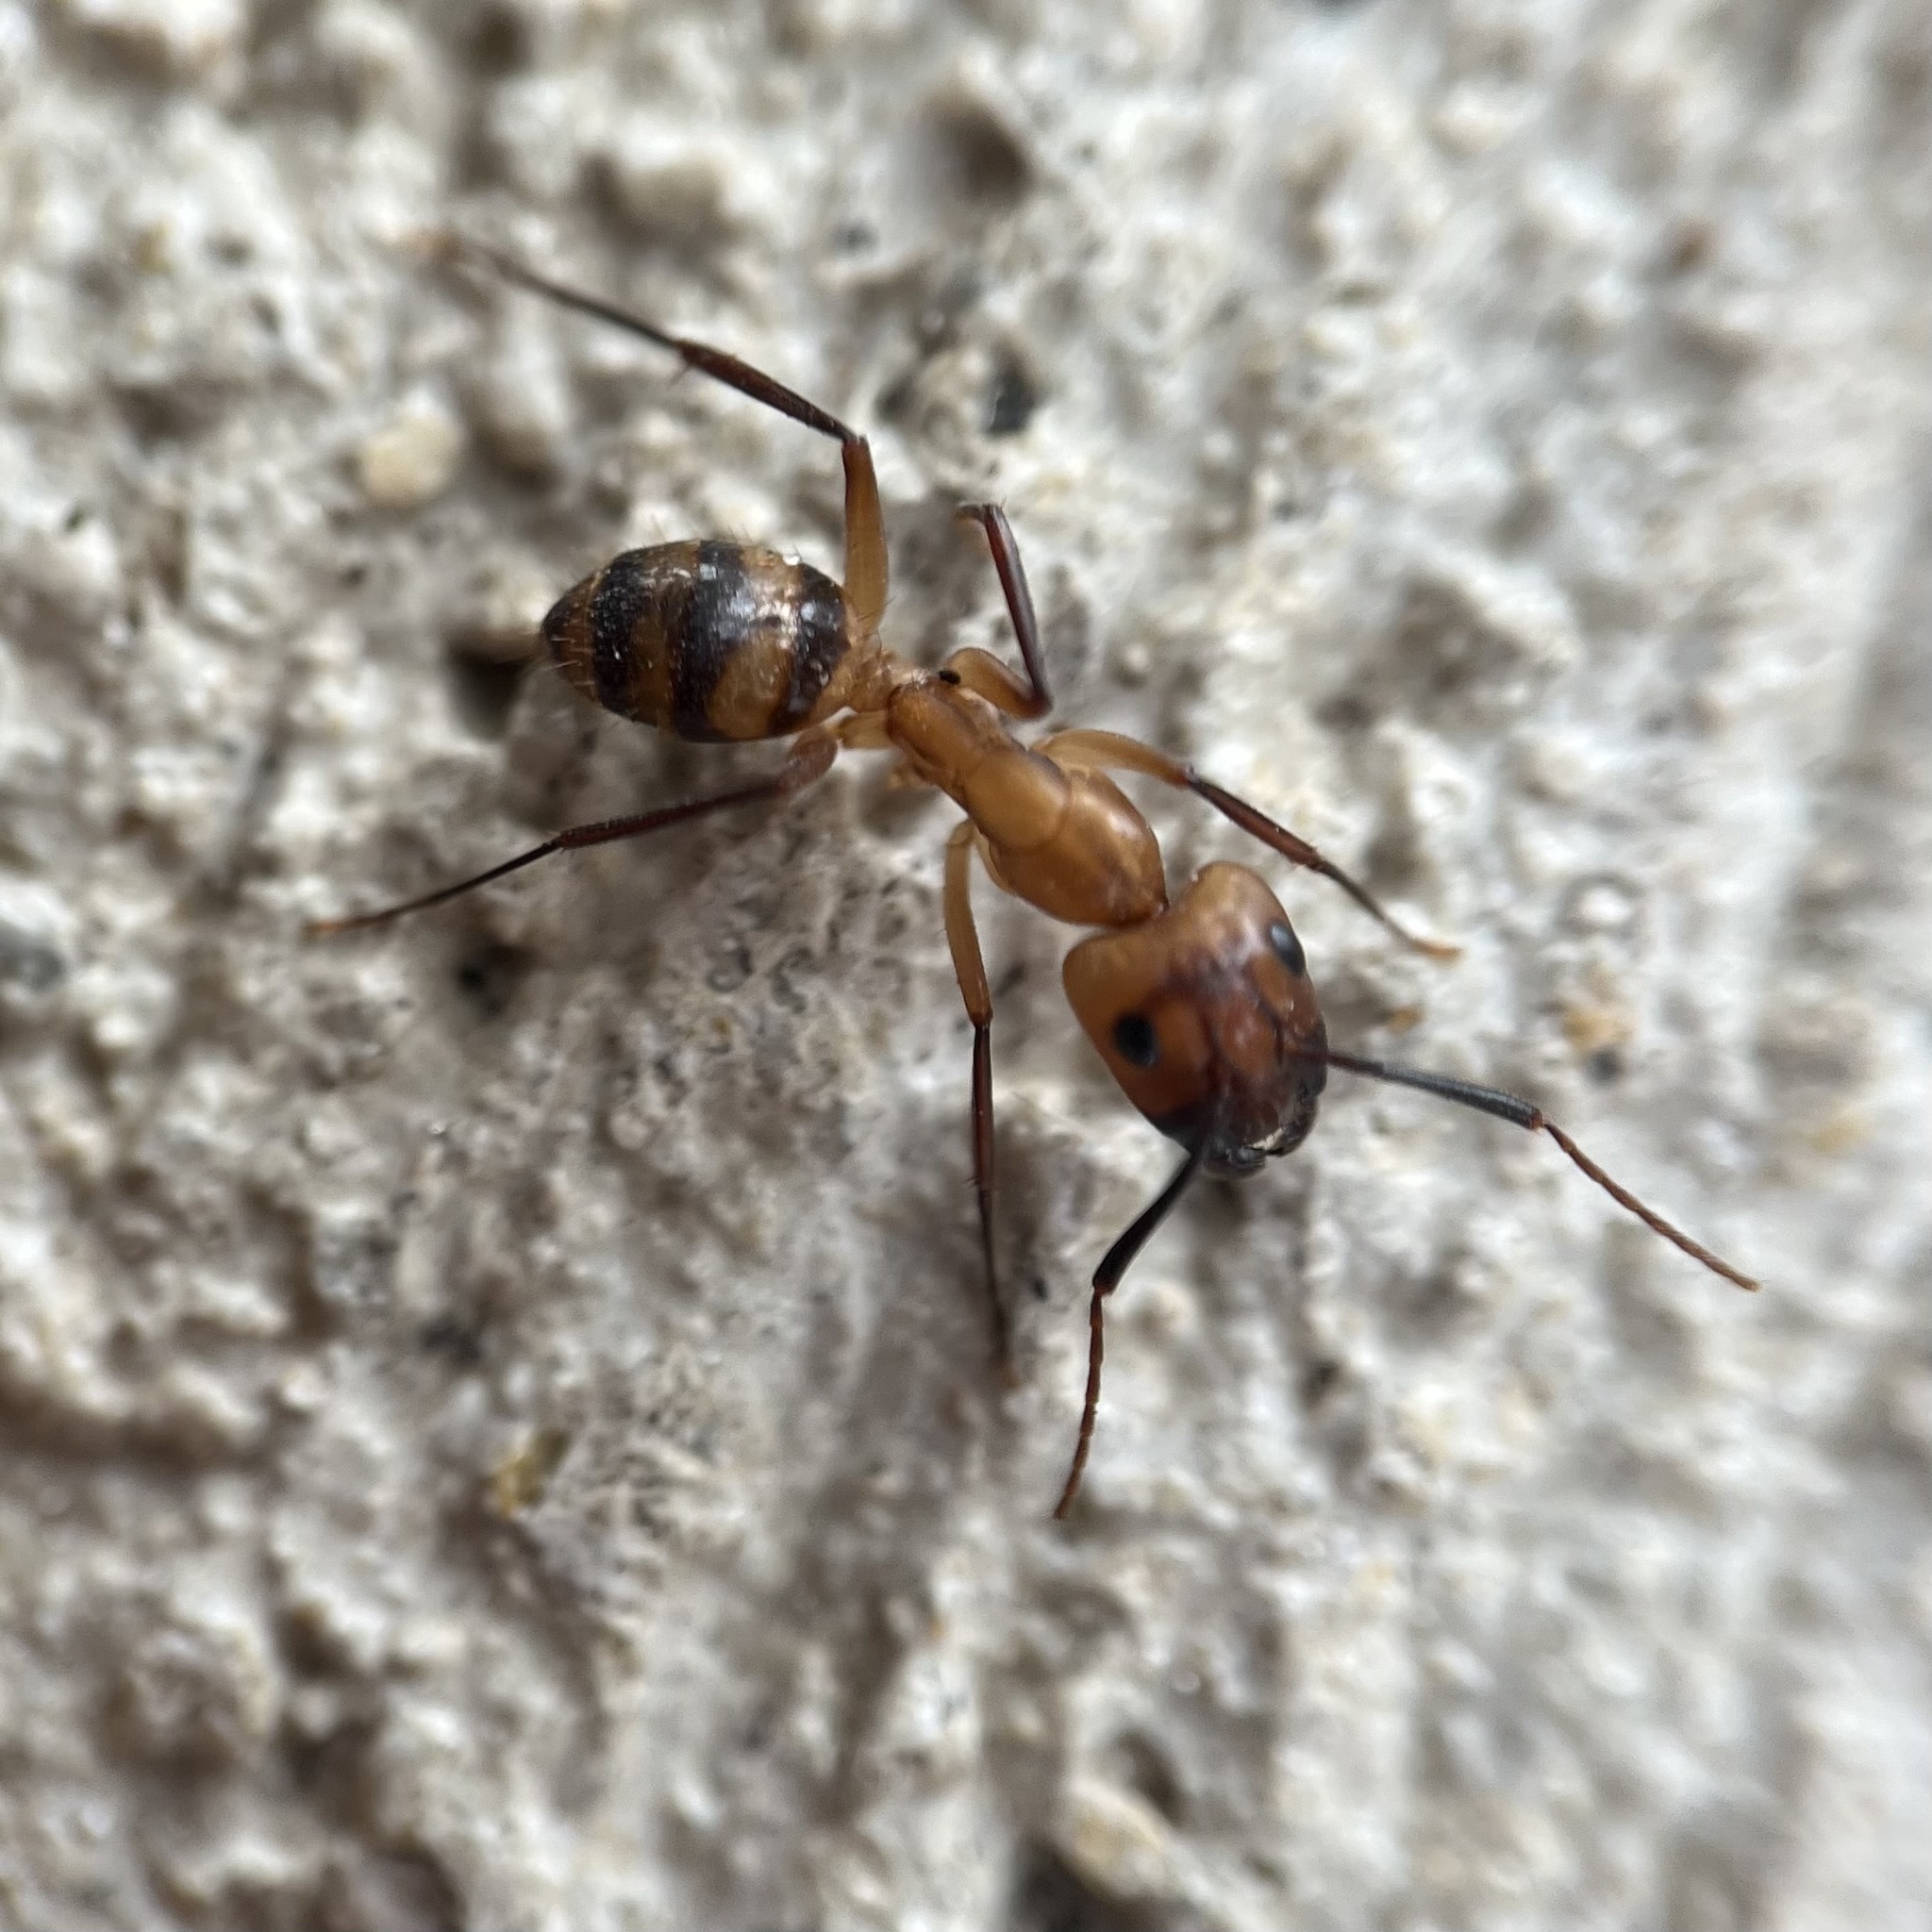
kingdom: Animalia
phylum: Arthropoda
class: Insecta
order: Hymenoptera
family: Formicidae
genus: Camponotus
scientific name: Camponotus
